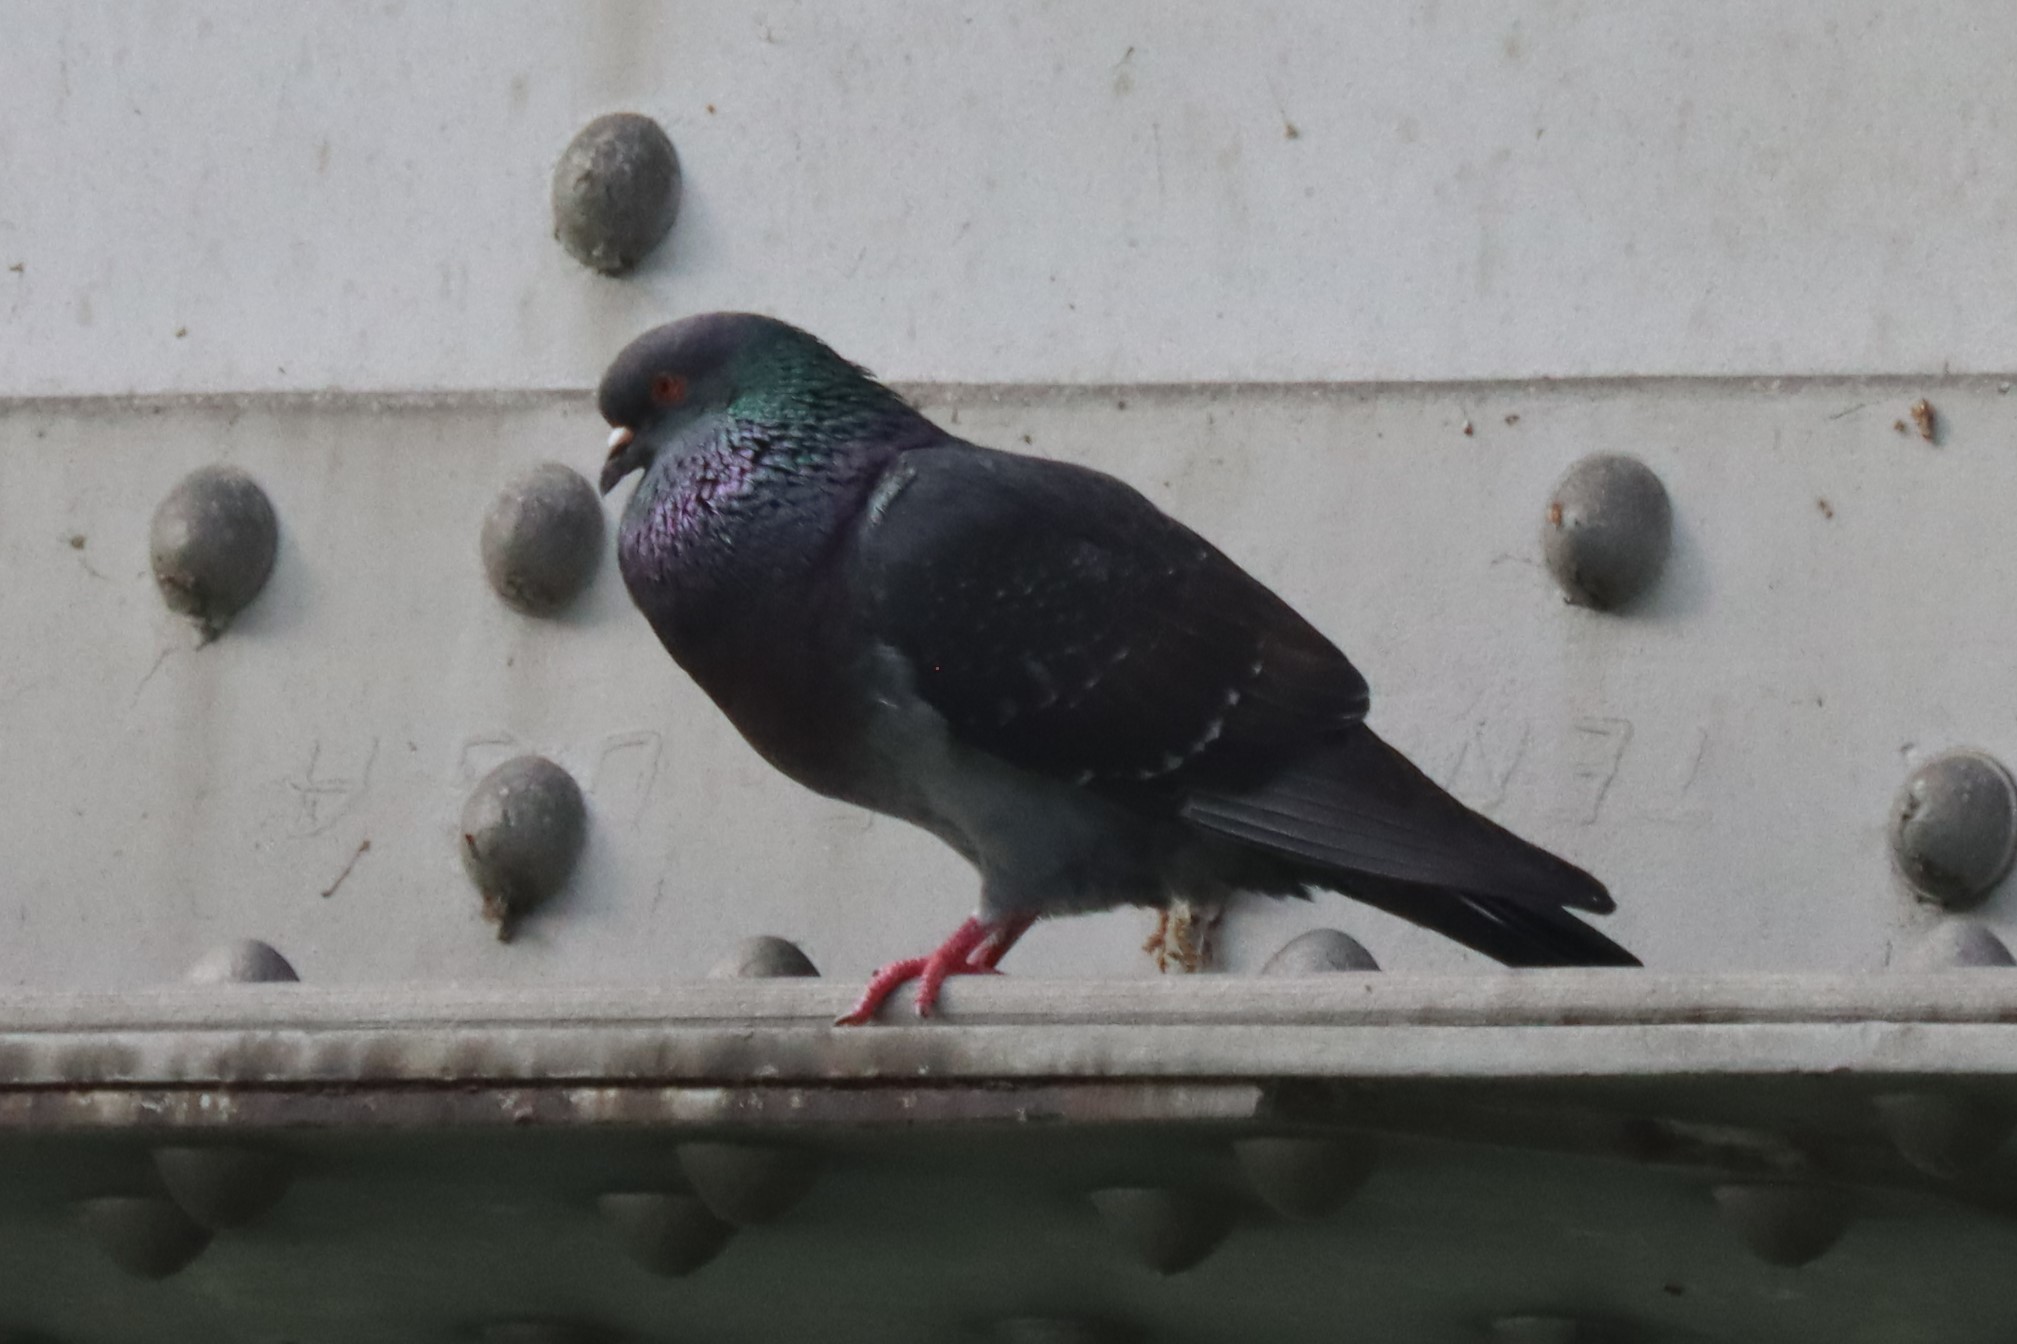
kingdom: Animalia
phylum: Chordata
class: Aves
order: Columbiformes
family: Columbidae
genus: Columba
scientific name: Columba livia
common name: Rock pigeon
